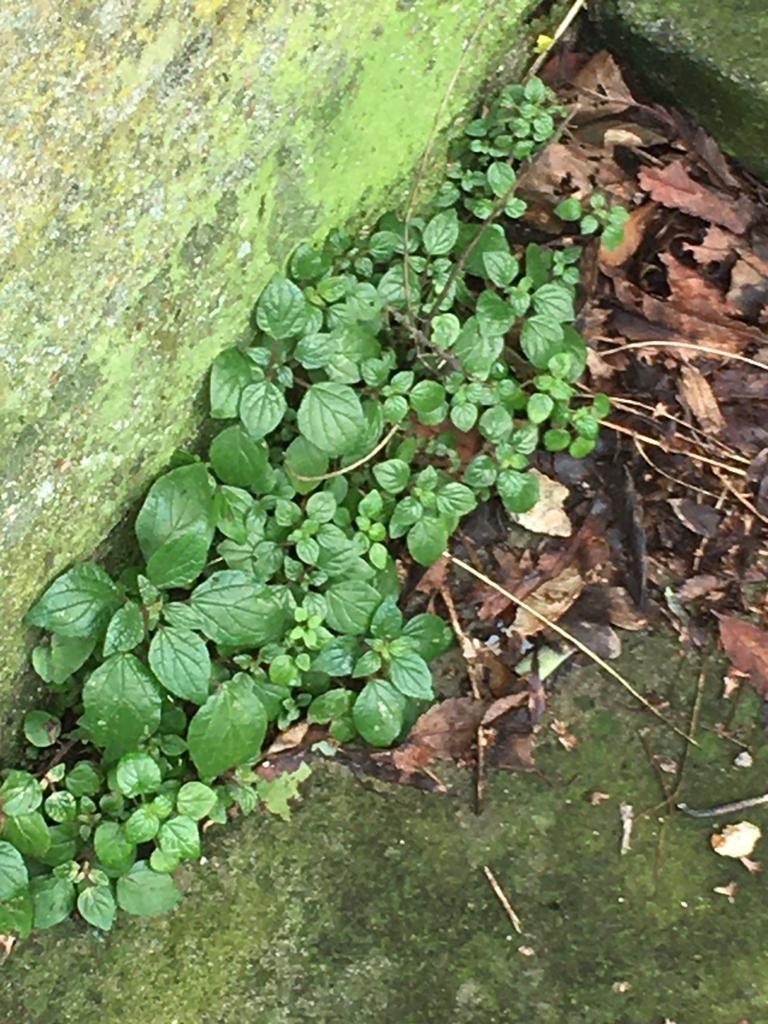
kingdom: Plantae
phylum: Tracheophyta
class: Magnoliopsida
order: Rosales
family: Urticaceae
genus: Parietaria
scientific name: Parietaria judaica
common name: Pellitory-of-the-wall
